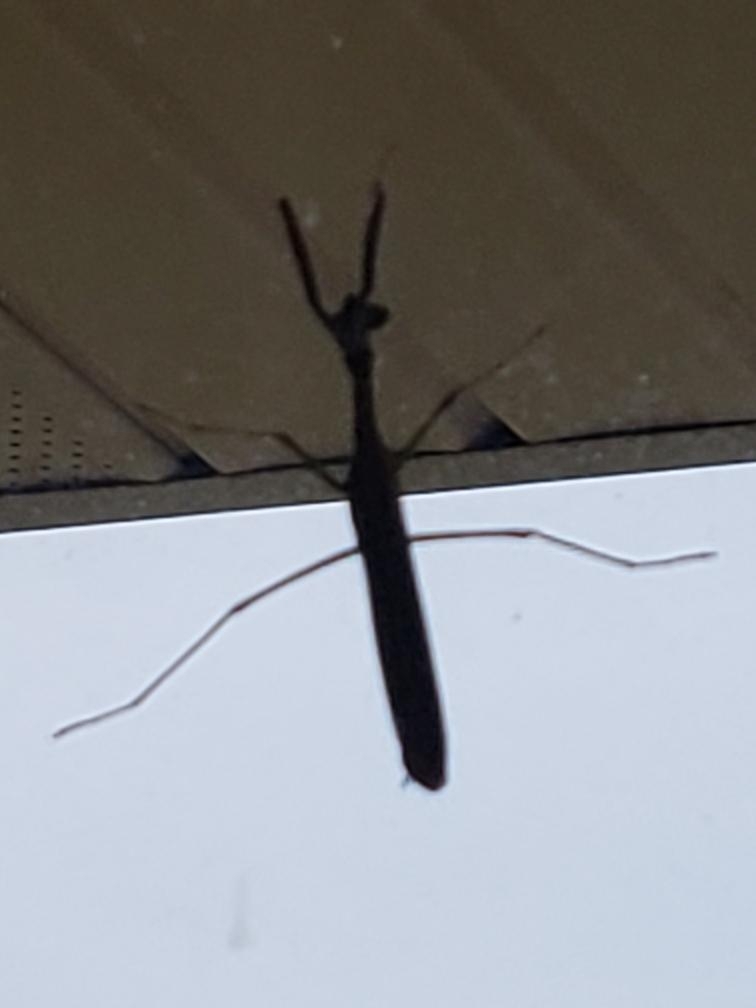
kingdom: Animalia
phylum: Arthropoda
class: Insecta
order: Mantodea
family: Mantidae
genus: Stagmomantis
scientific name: Stagmomantis carolina
